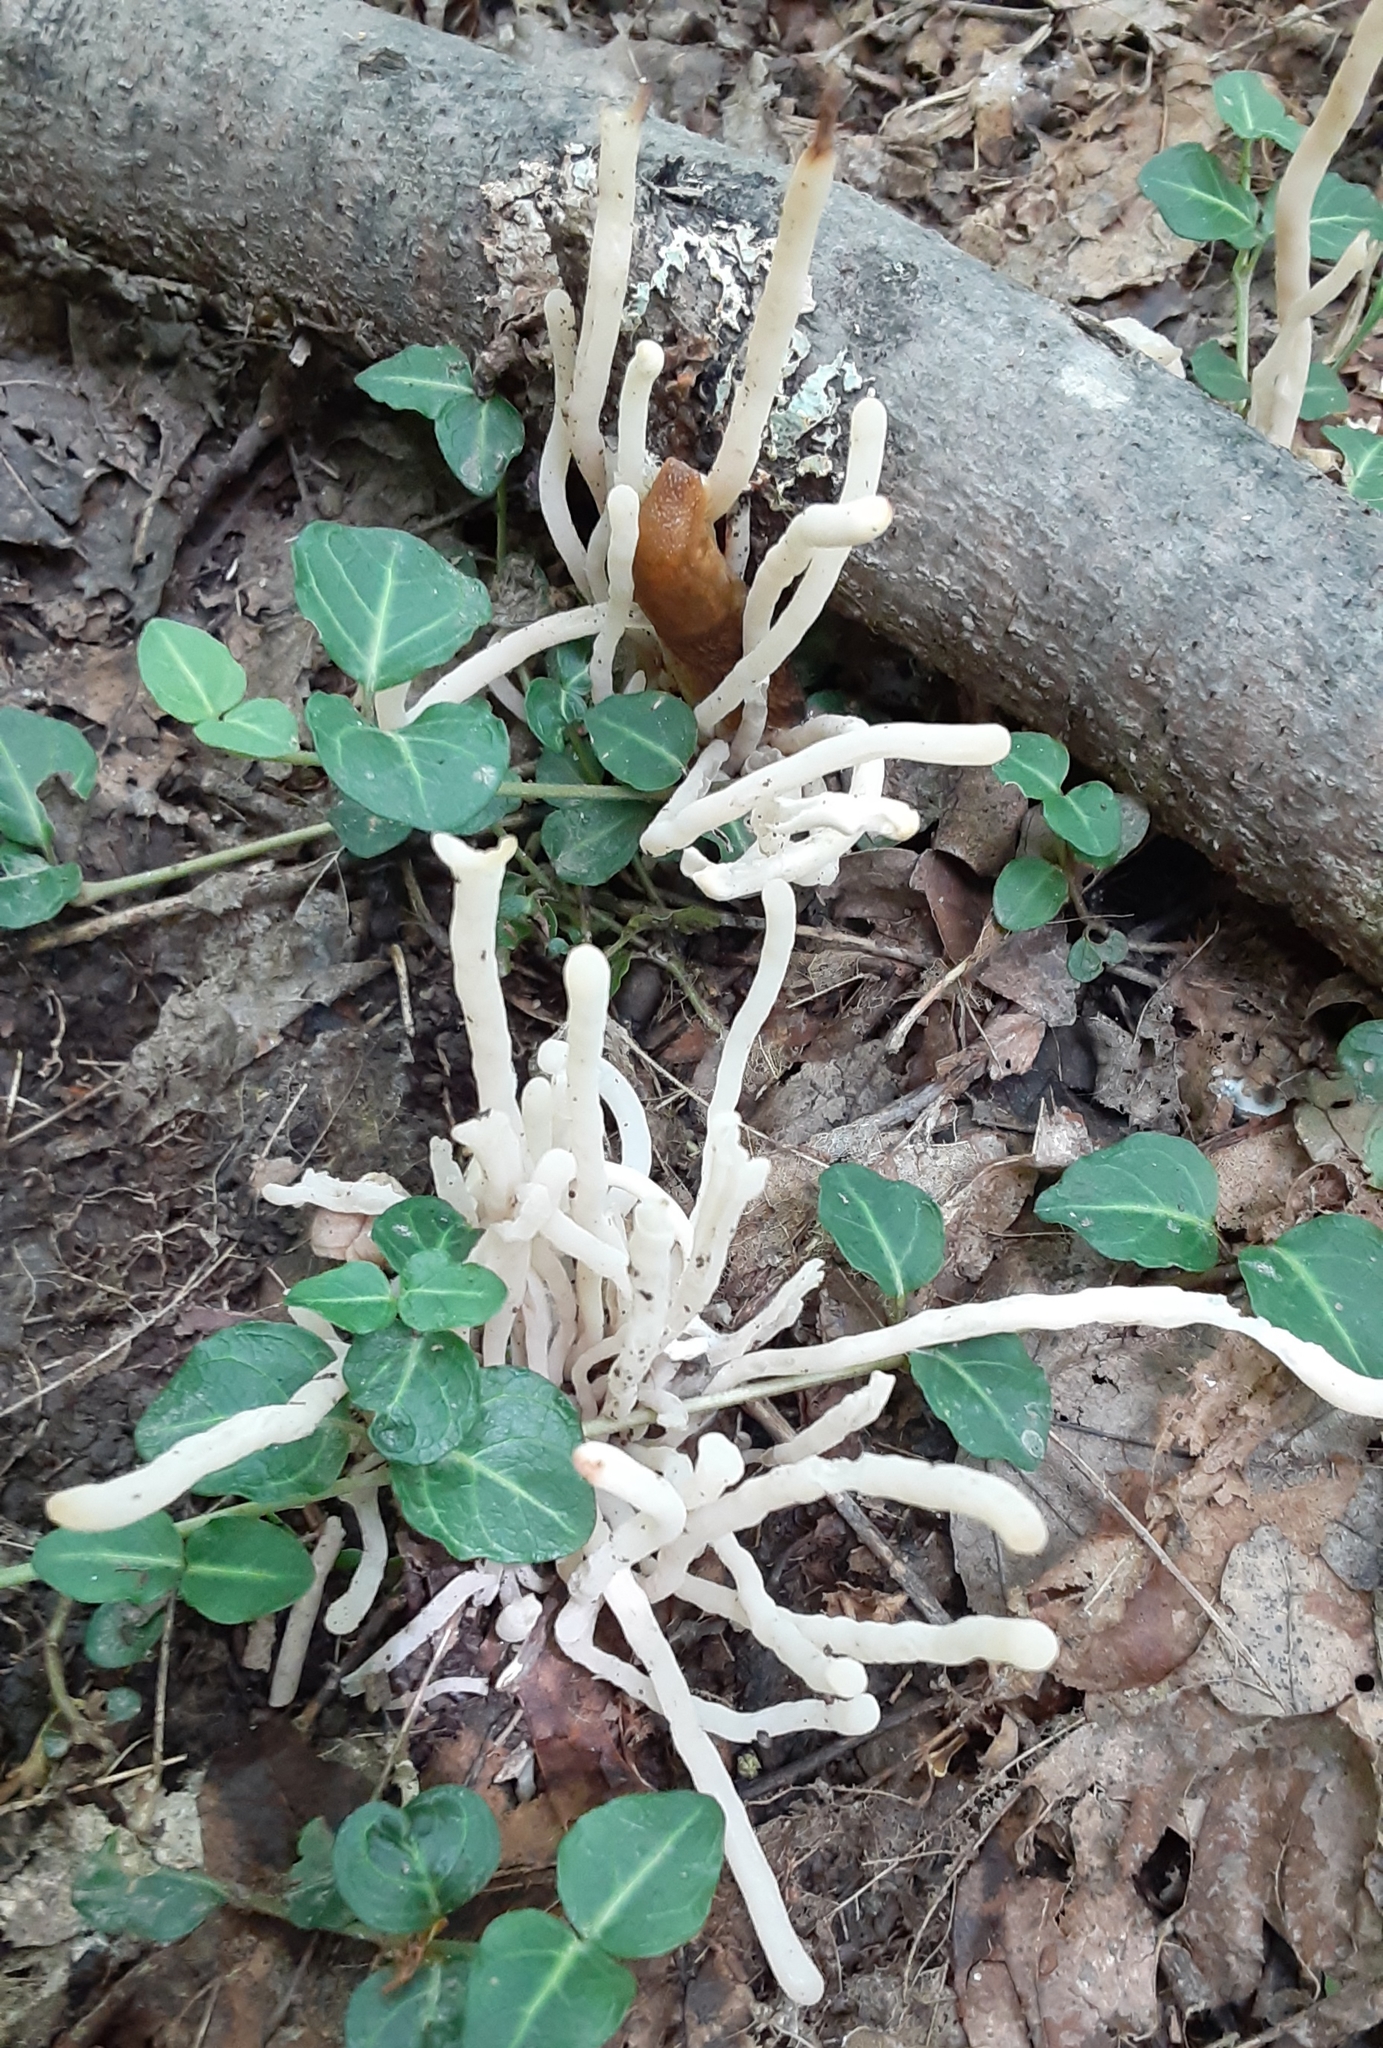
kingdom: Fungi
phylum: Basidiomycota
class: Agaricomycetes
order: Agaricales
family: Clavariaceae
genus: Clavaria
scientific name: Clavaria fragilis
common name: White spindles
